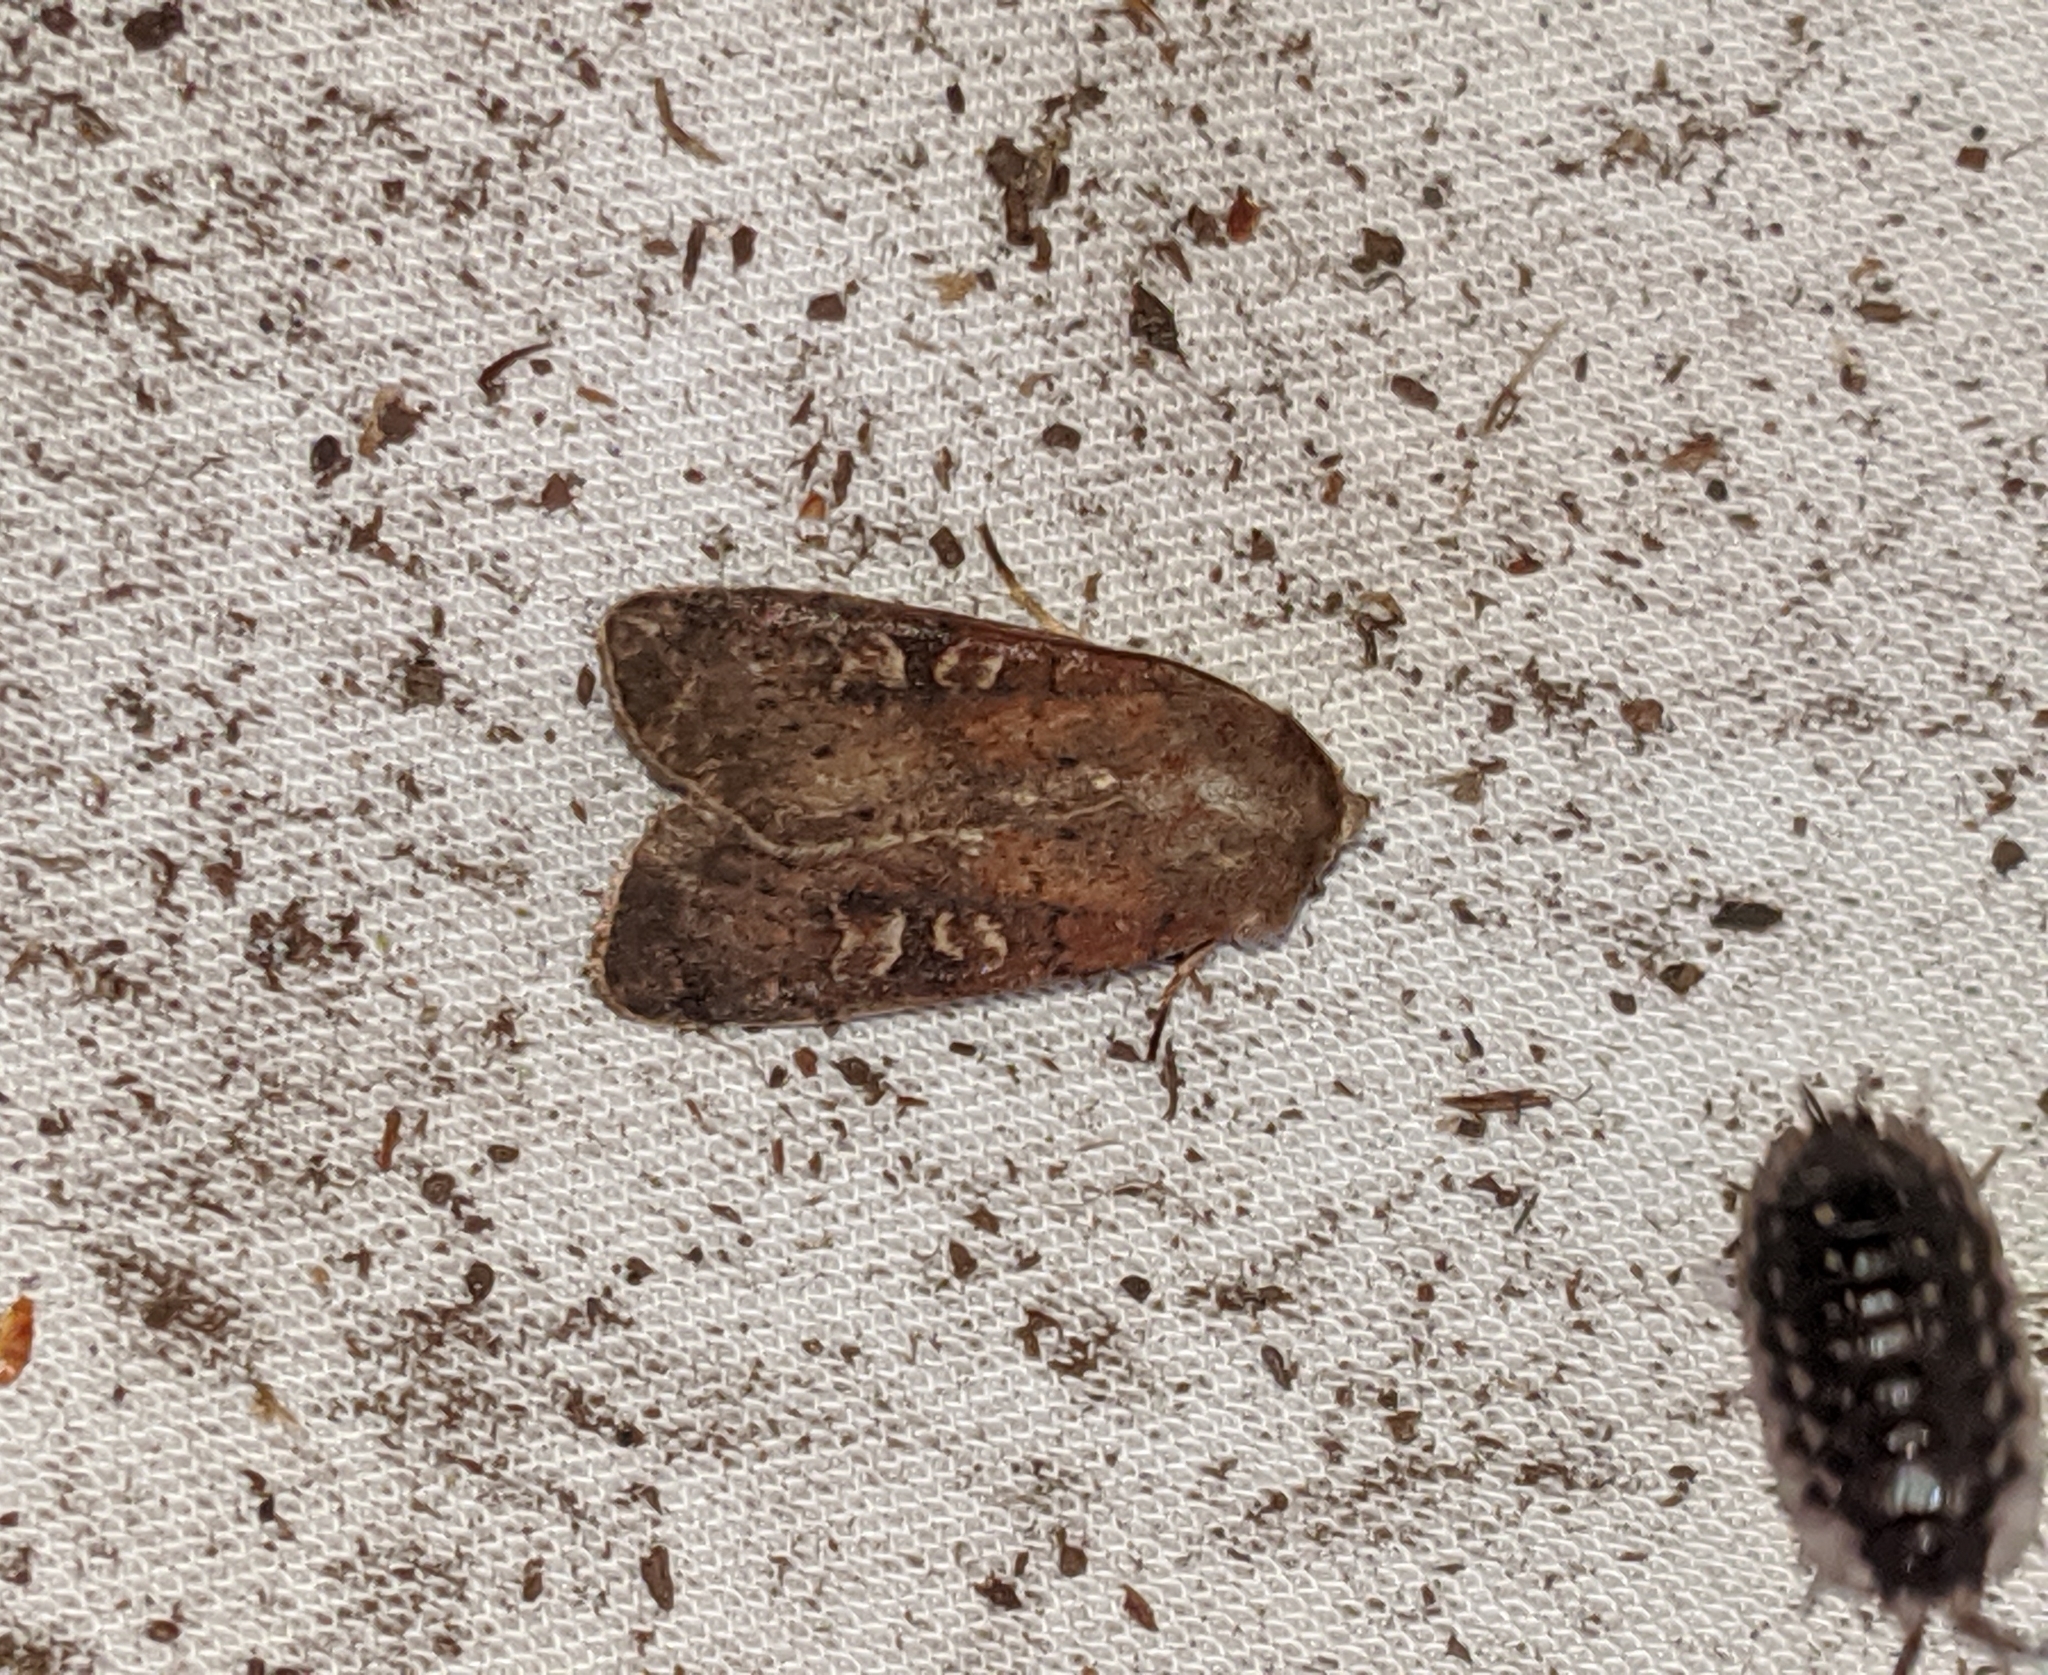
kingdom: Animalia
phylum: Arthropoda
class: Insecta
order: Lepidoptera
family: Noctuidae
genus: Xestia
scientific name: Xestia xanthographa
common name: Square-spot rustic
